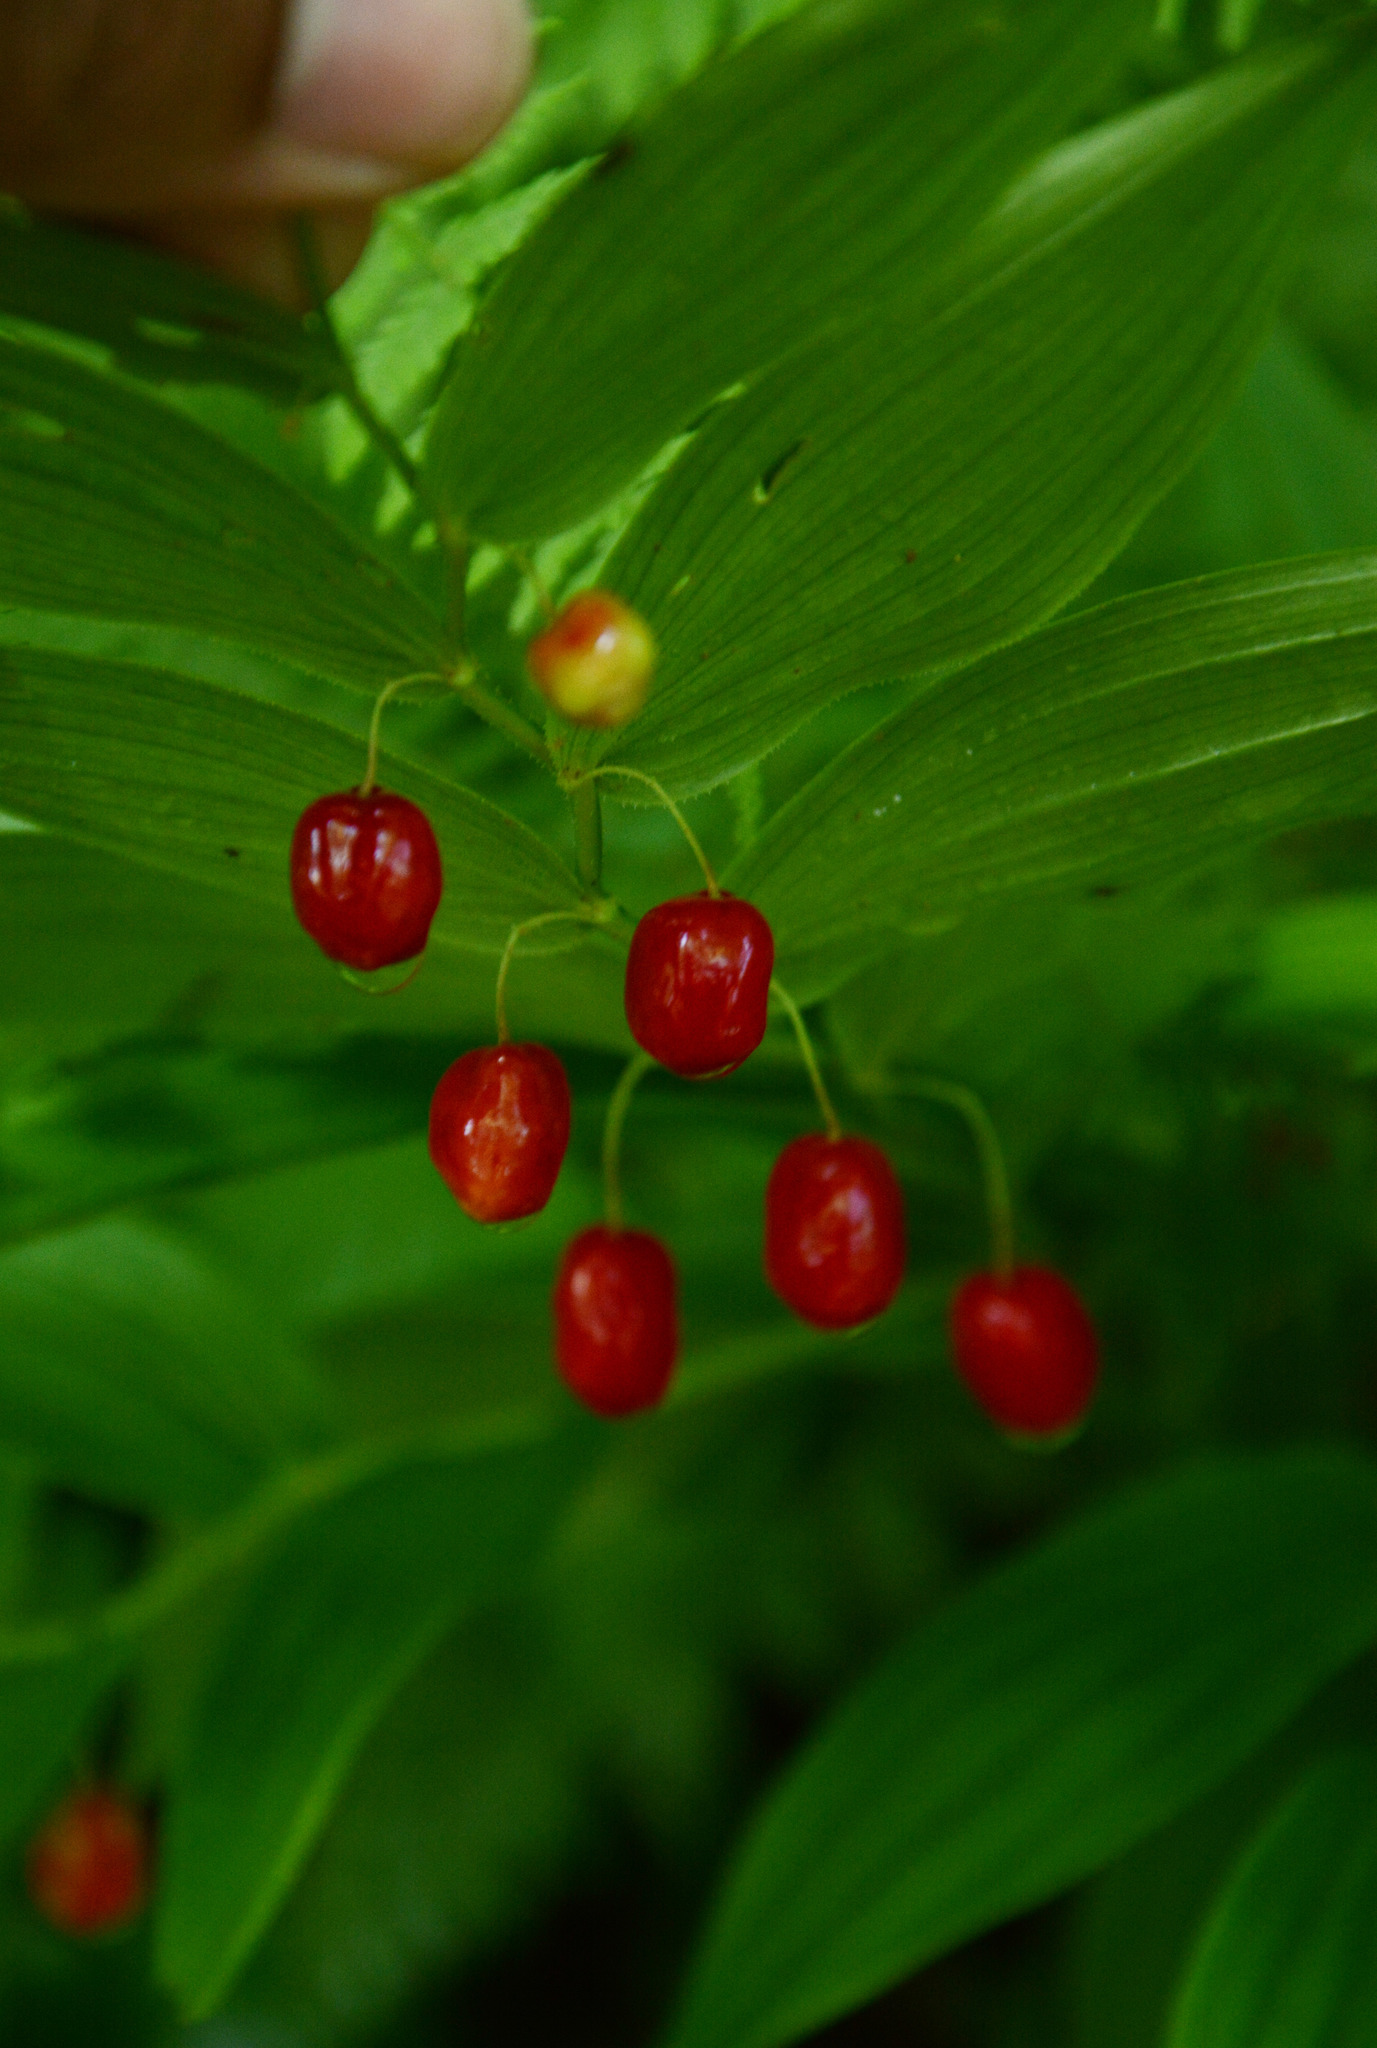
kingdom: Plantae
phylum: Tracheophyta
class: Liliopsida
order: Liliales
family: Liliaceae
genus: Streptopus
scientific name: Streptopus lanceolatus
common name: Rose mandarin
